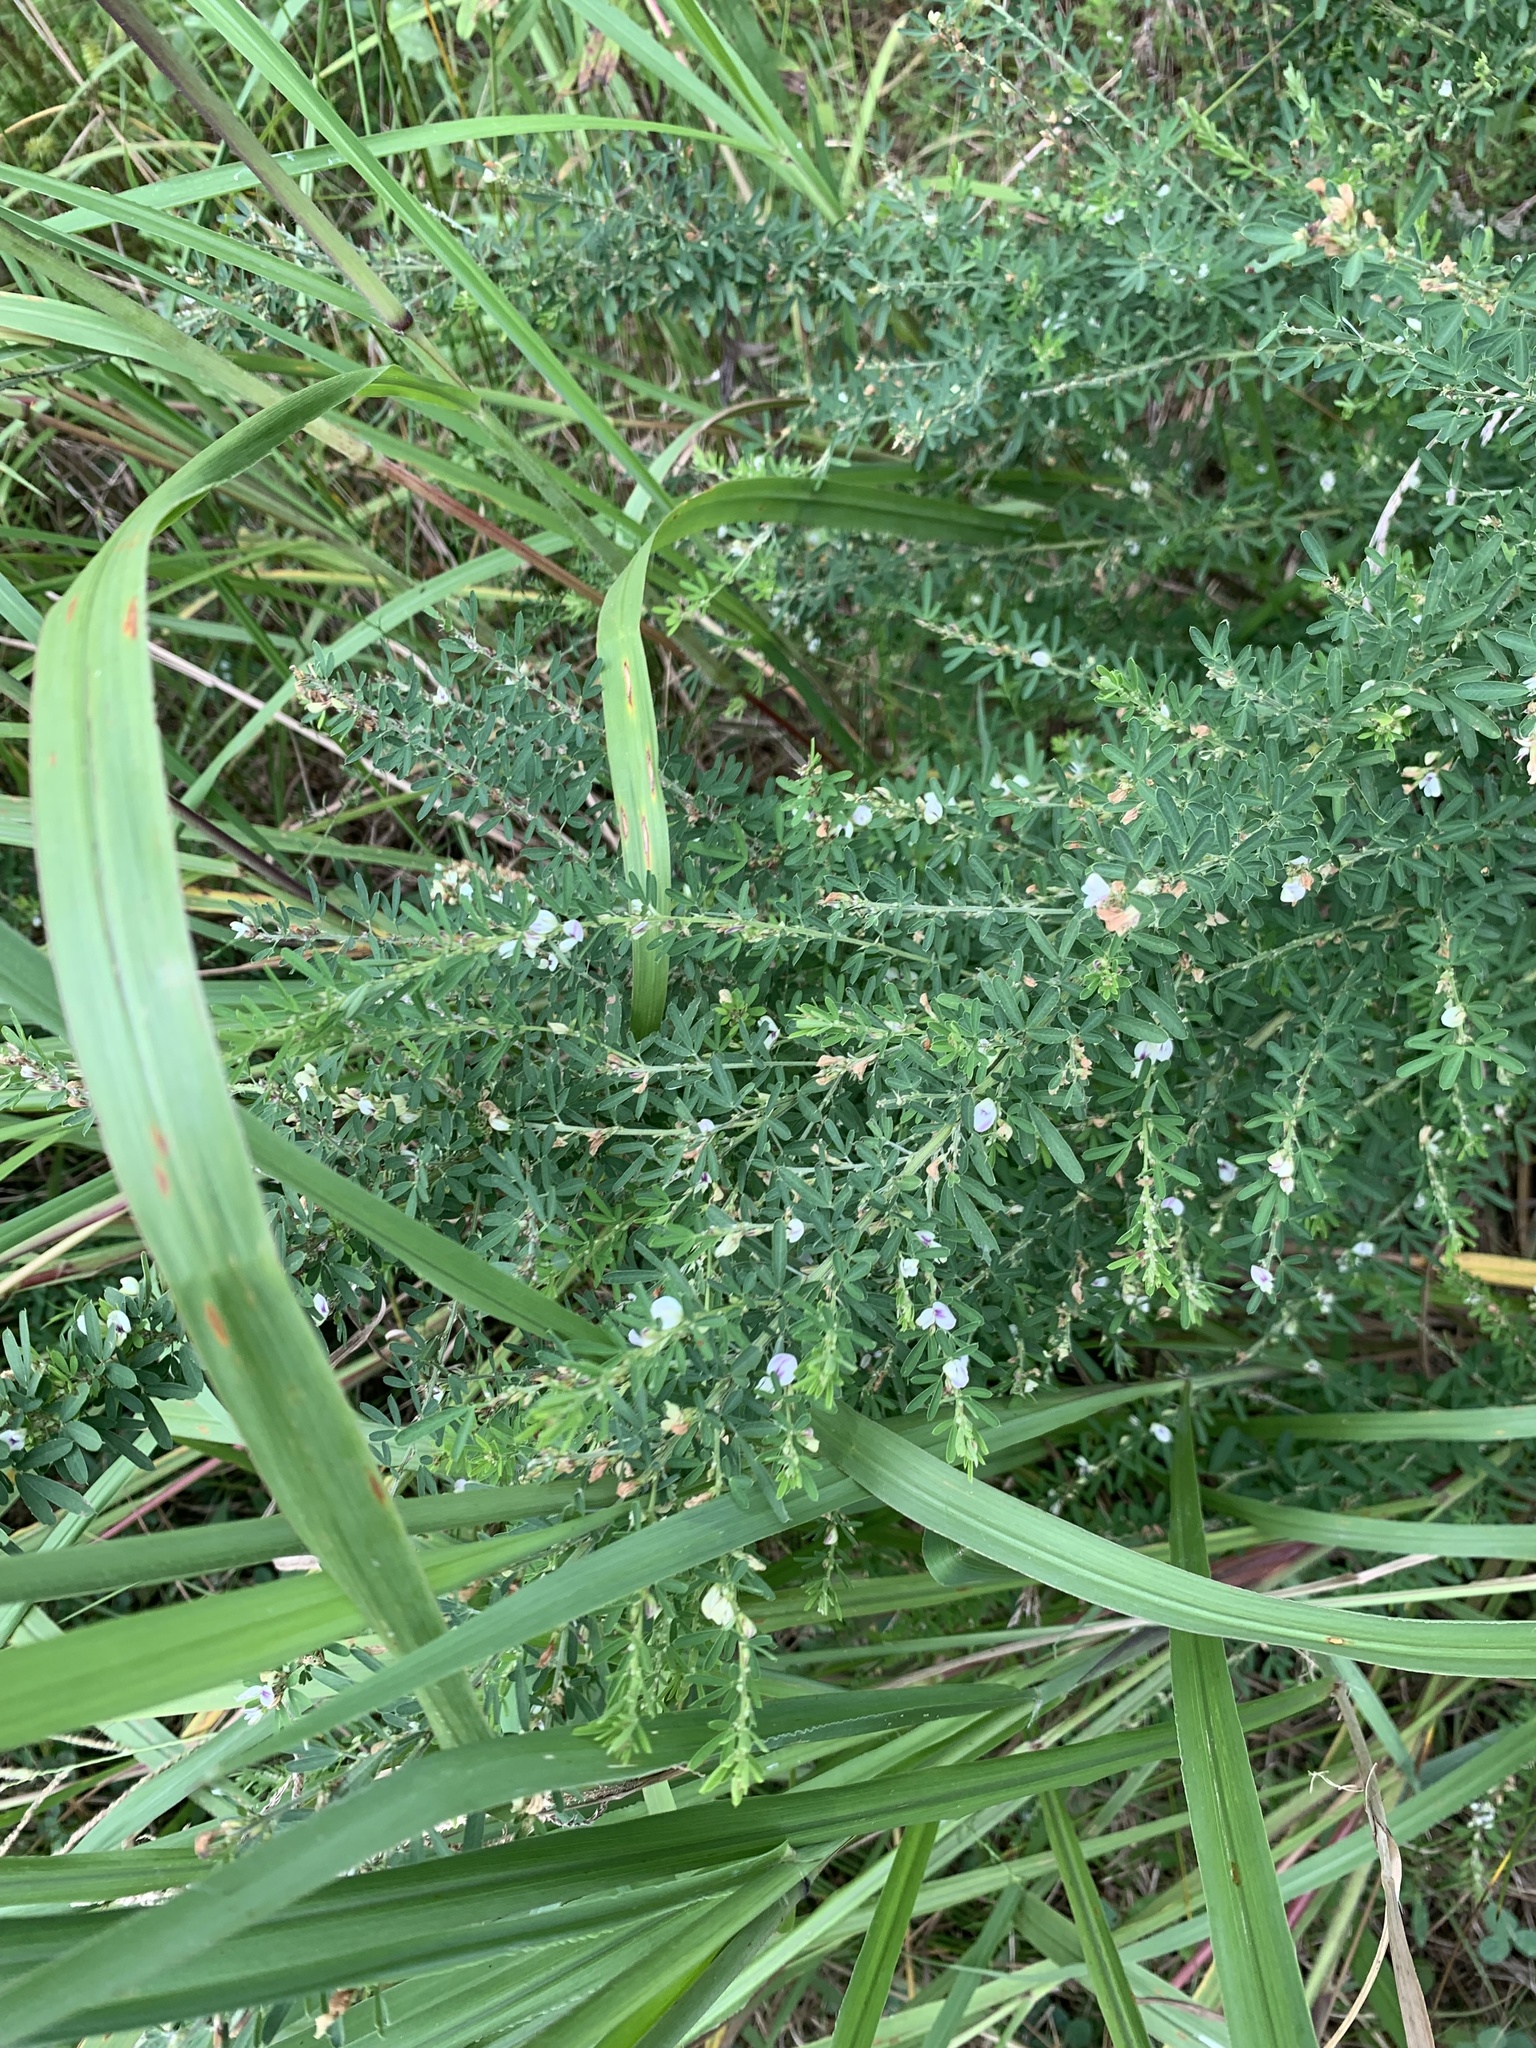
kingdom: Plantae
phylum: Tracheophyta
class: Magnoliopsida
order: Fabales
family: Fabaceae
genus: Lespedeza
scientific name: Lespedeza cuneata
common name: Chinese bush-clover
